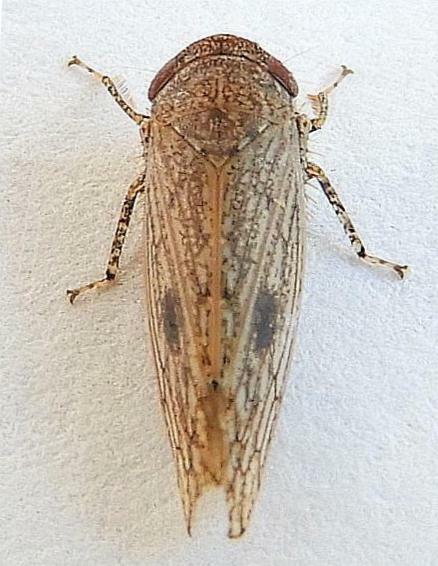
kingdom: Animalia
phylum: Arthropoda
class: Insecta
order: Hemiptera
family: Cicadellidae
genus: Paraphlepsius
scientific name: Paraphlepsius planus
